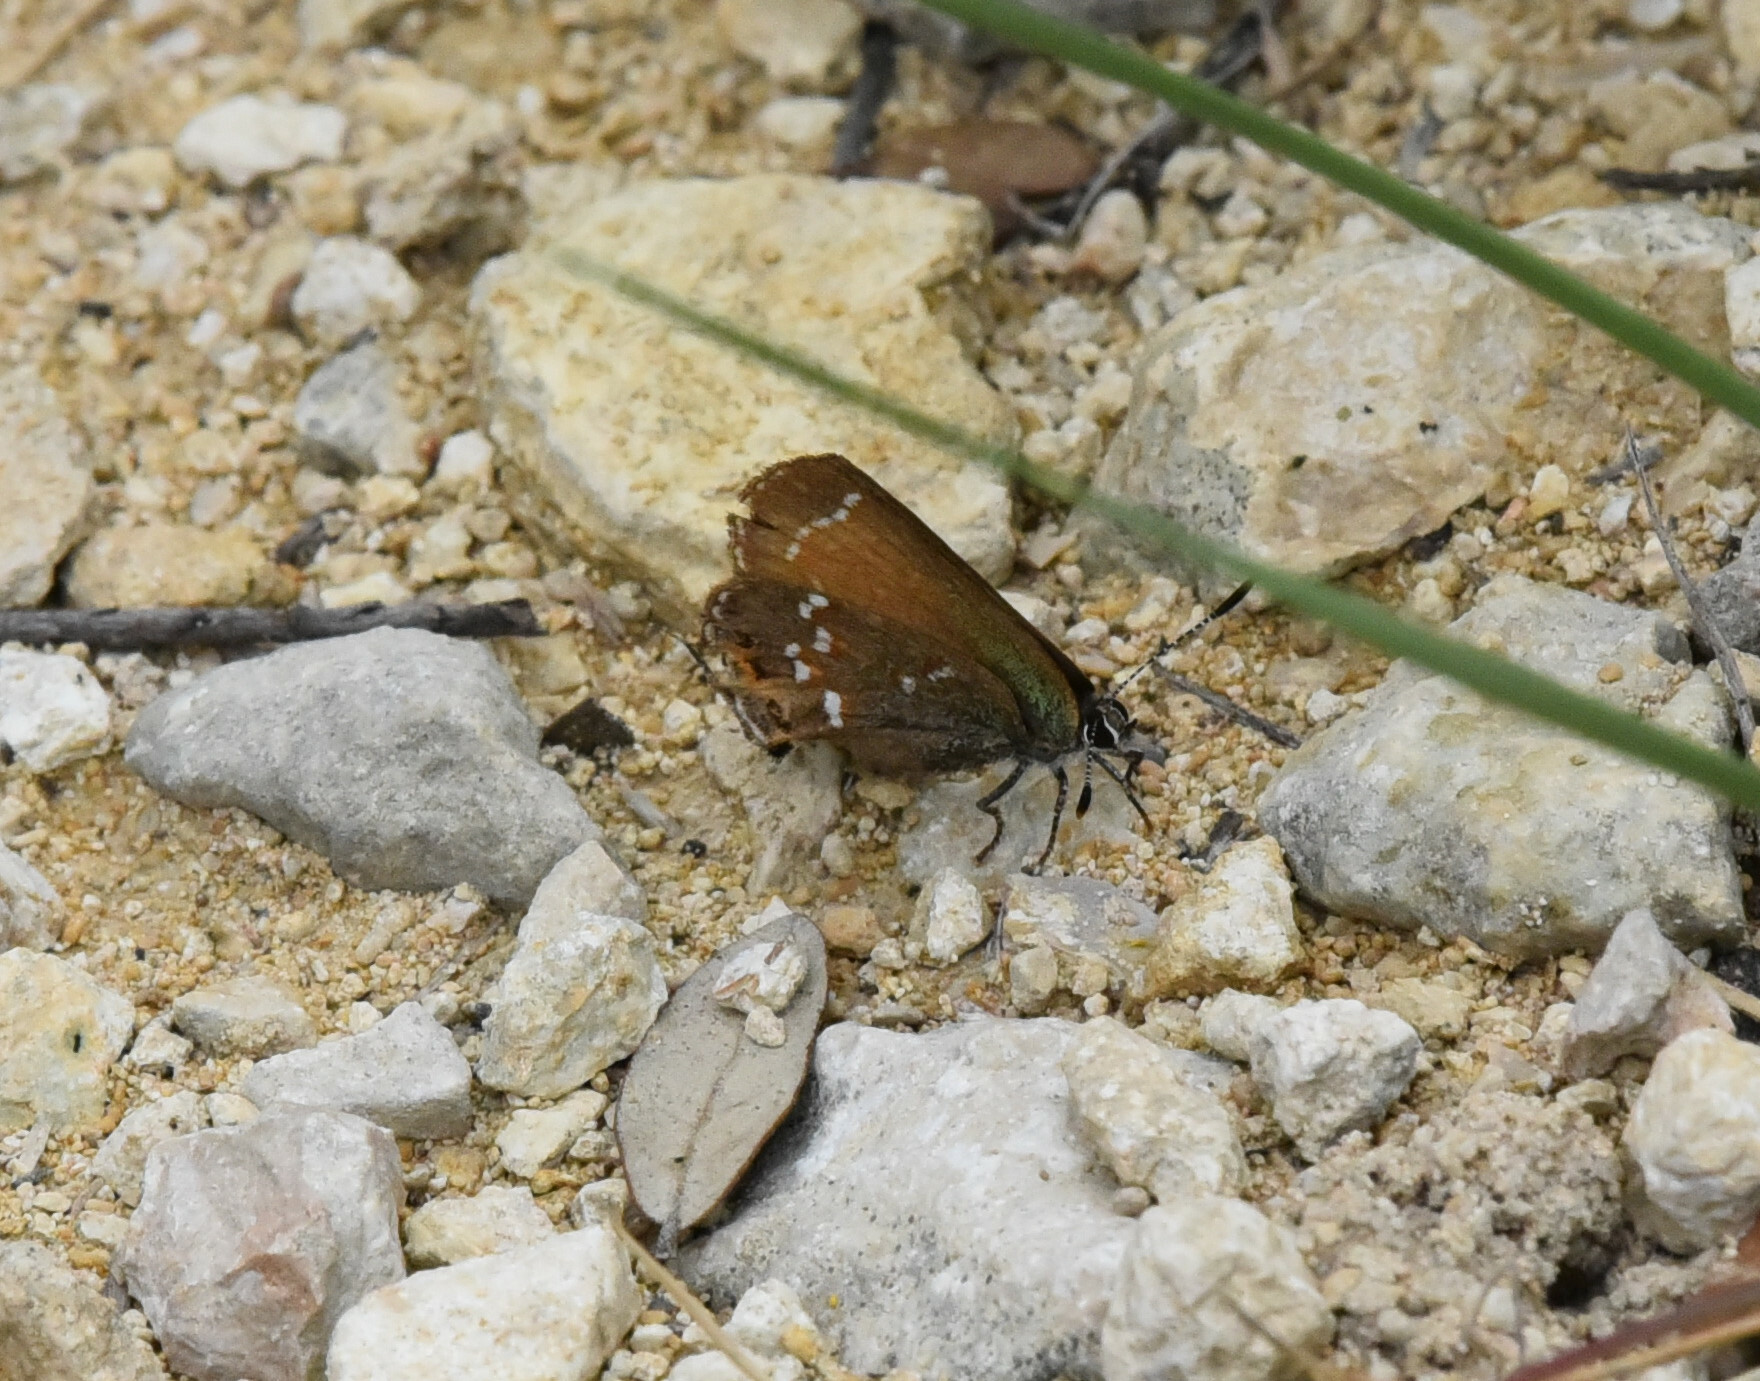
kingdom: Animalia
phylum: Arthropoda
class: Insecta
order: Lepidoptera
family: Lycaenidae
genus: Mitoura
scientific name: Mitoura gryneus
